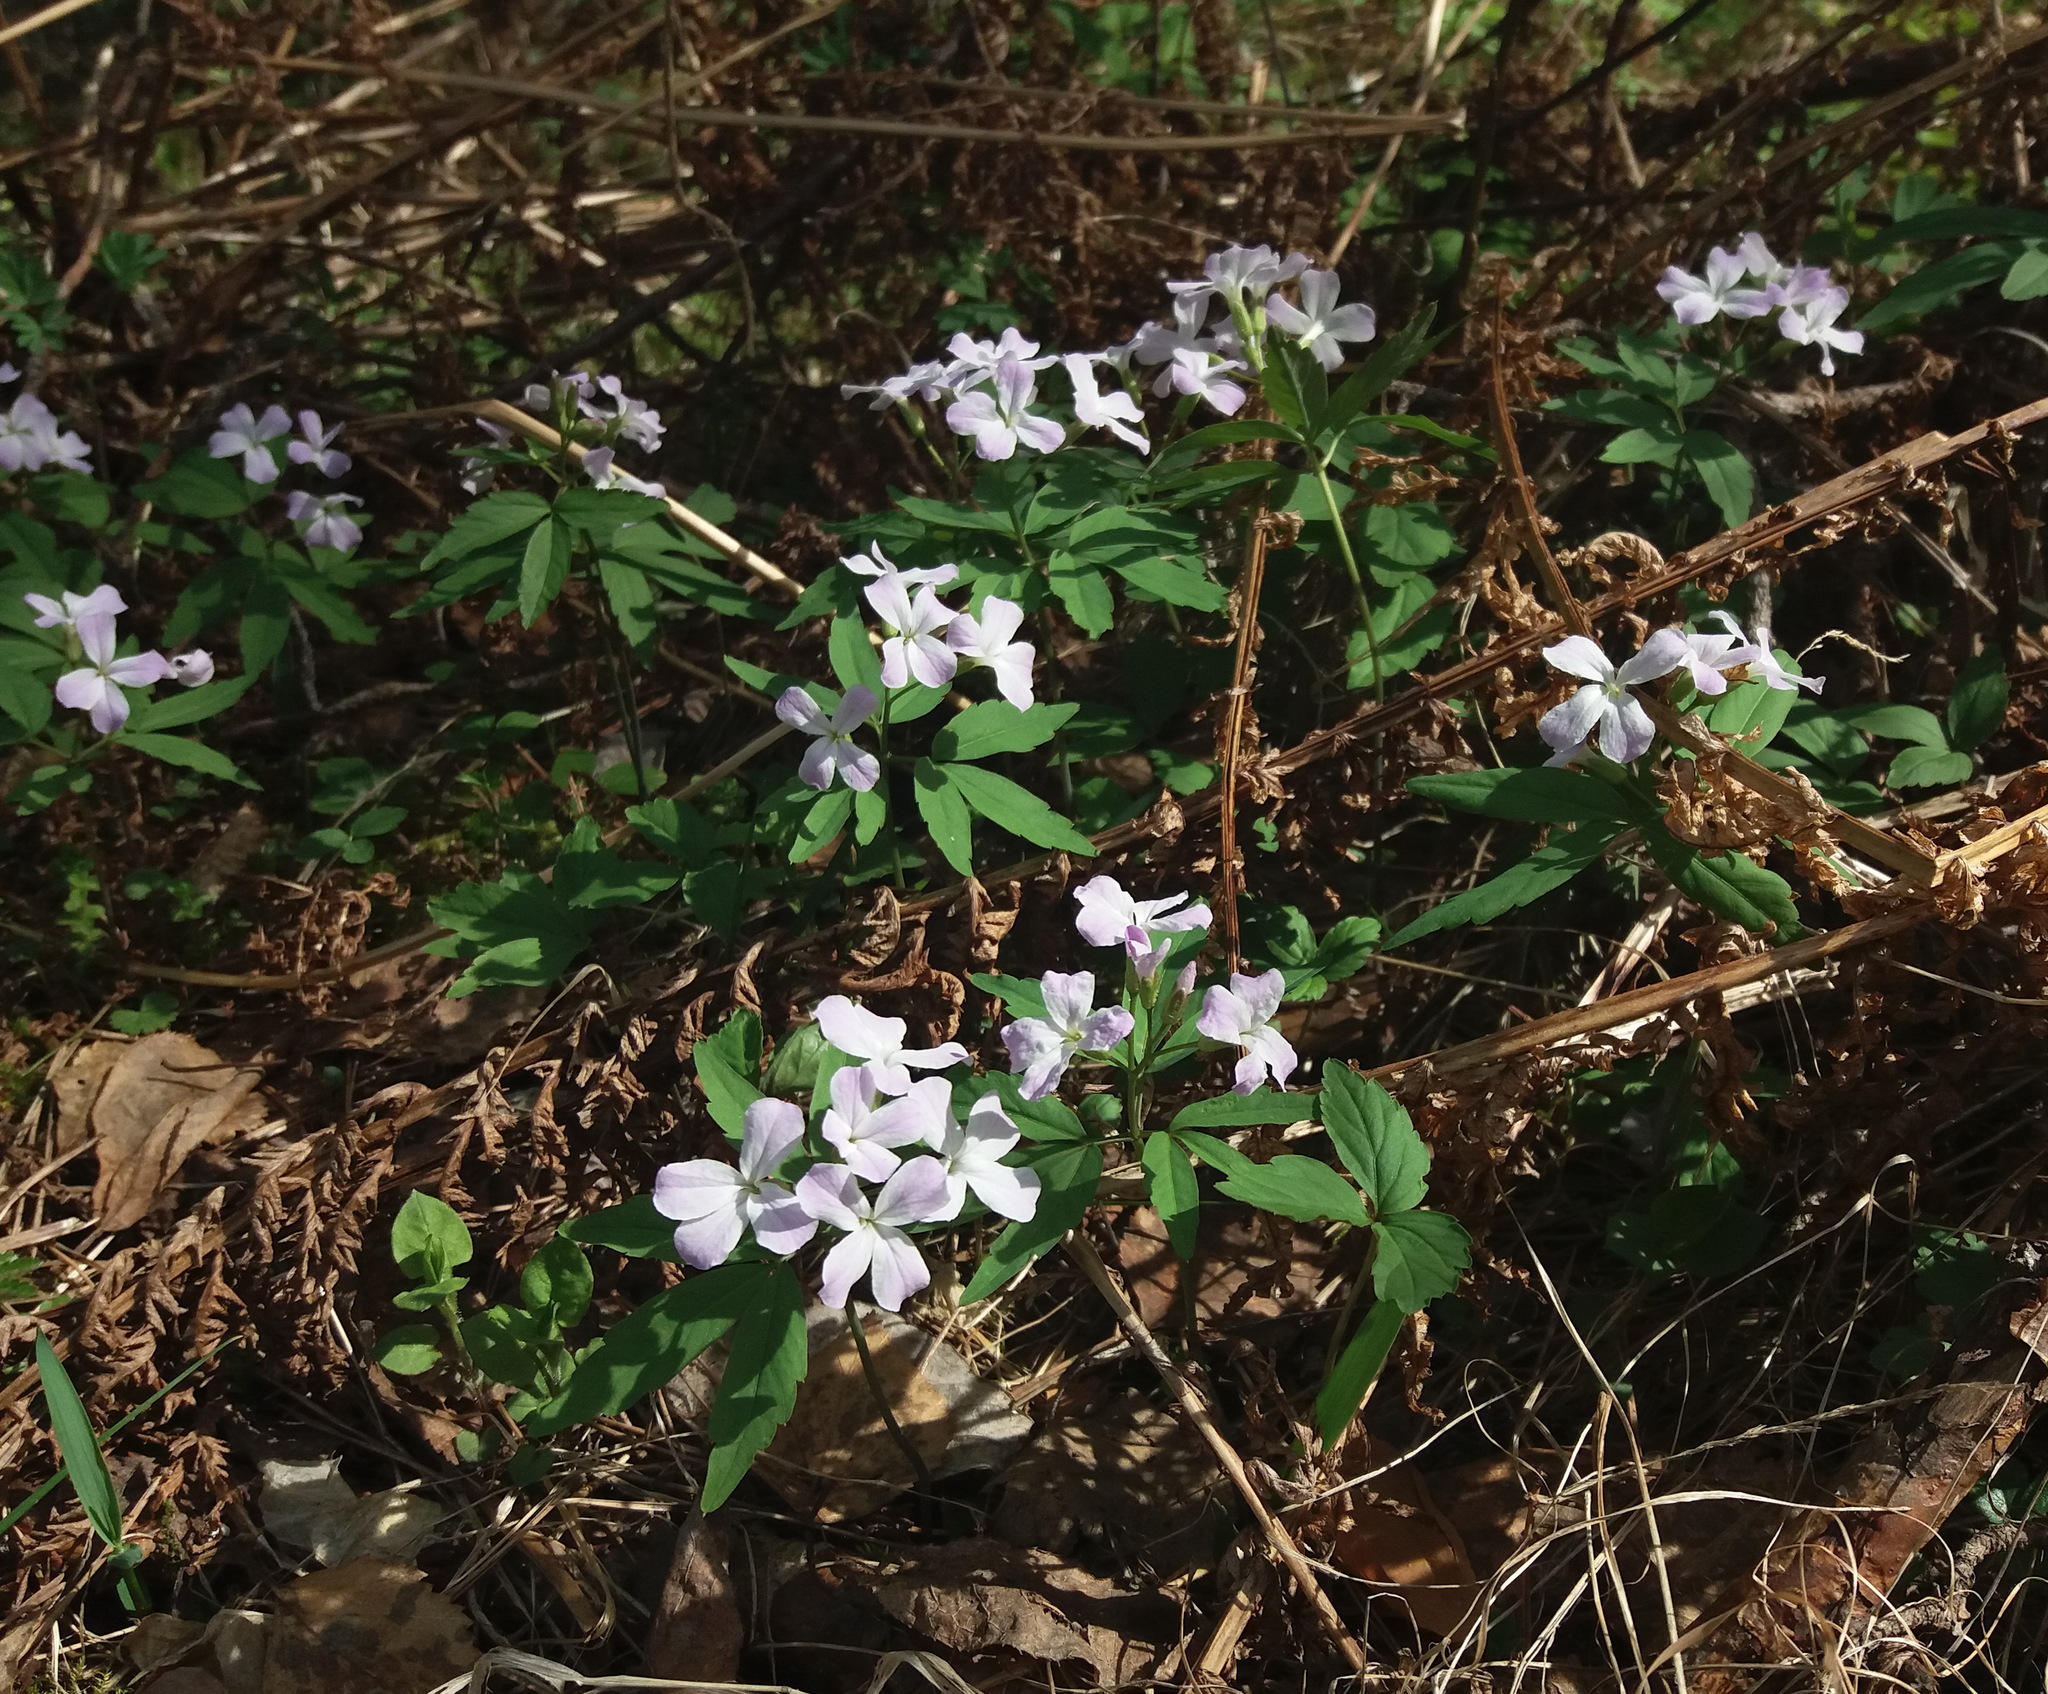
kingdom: Plantae
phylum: Tracheophyta
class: Magnoliopsida
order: Brassicales
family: Brassicaceae
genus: Cardamine
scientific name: Cardamine altaica
